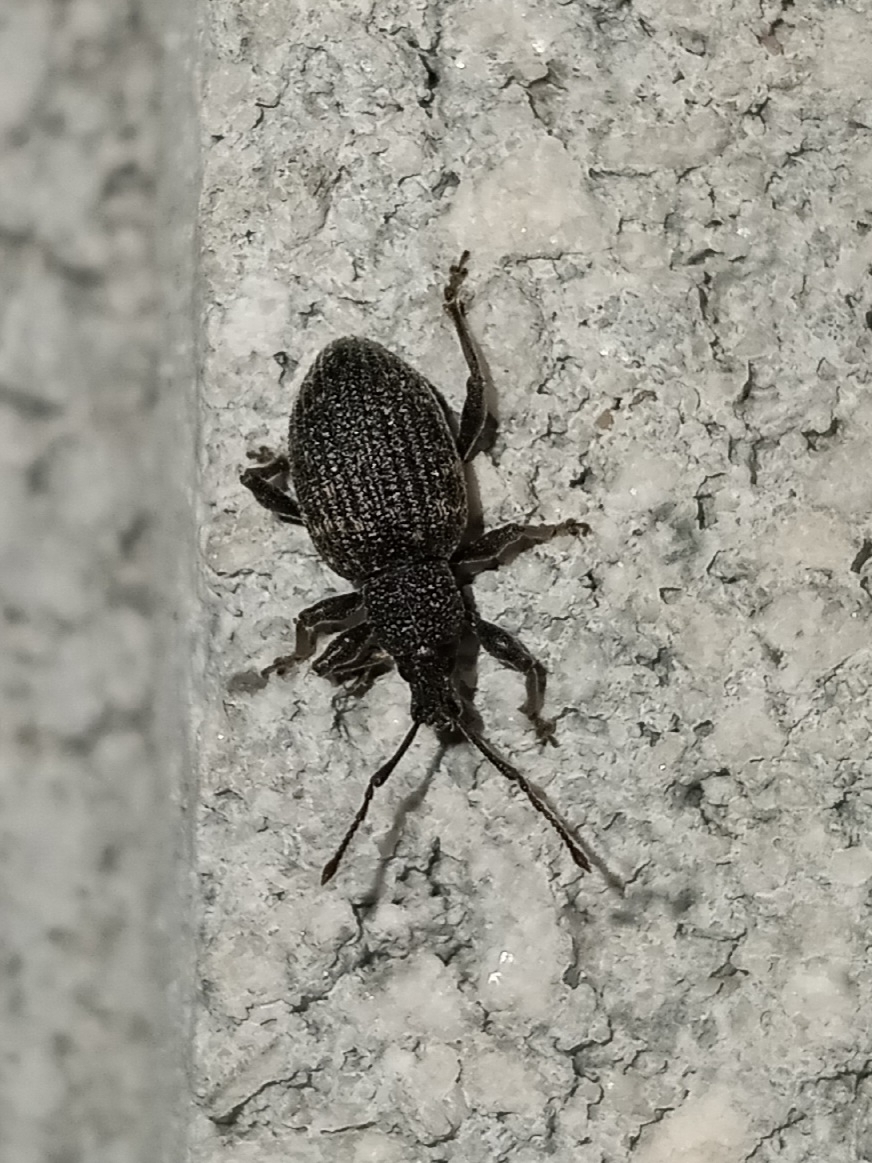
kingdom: Animalia
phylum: Arthropoda
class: Insecta
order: Coleoptera
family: Curculionidae
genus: Otiorhynchus
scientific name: Otiorhynchus sulcatus
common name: Black vine weevil
